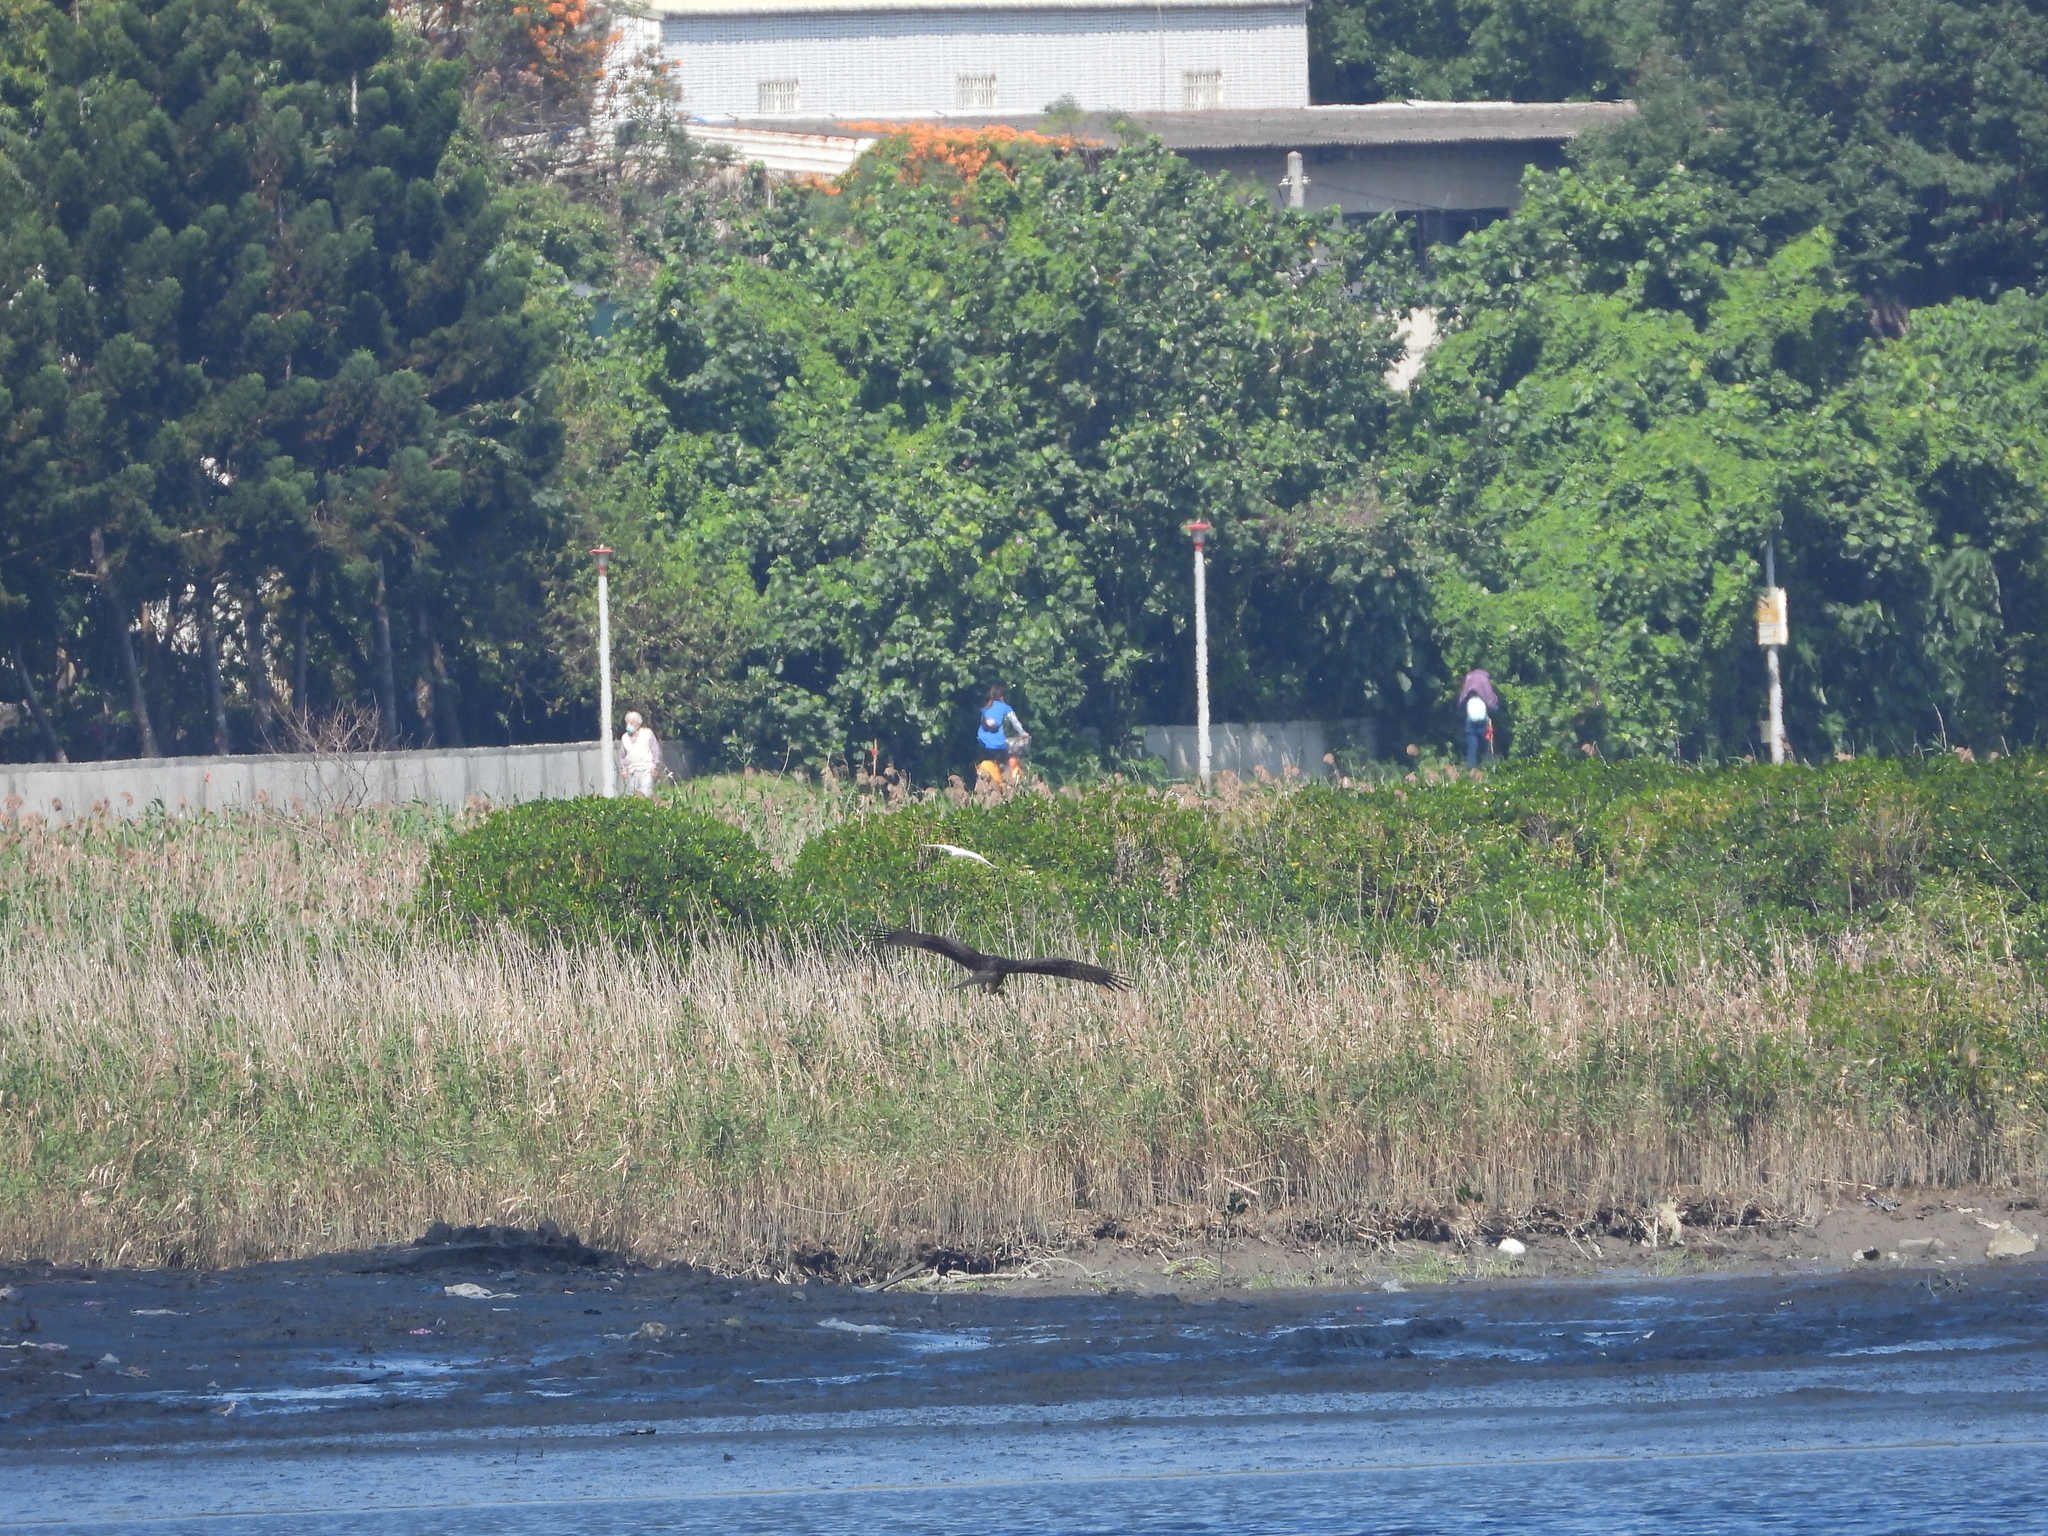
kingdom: Animalia
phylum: Chordata
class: Aves
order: Accipitriformes
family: Accipitridae
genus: Milvus
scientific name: Milvus migrans
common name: Black kite
